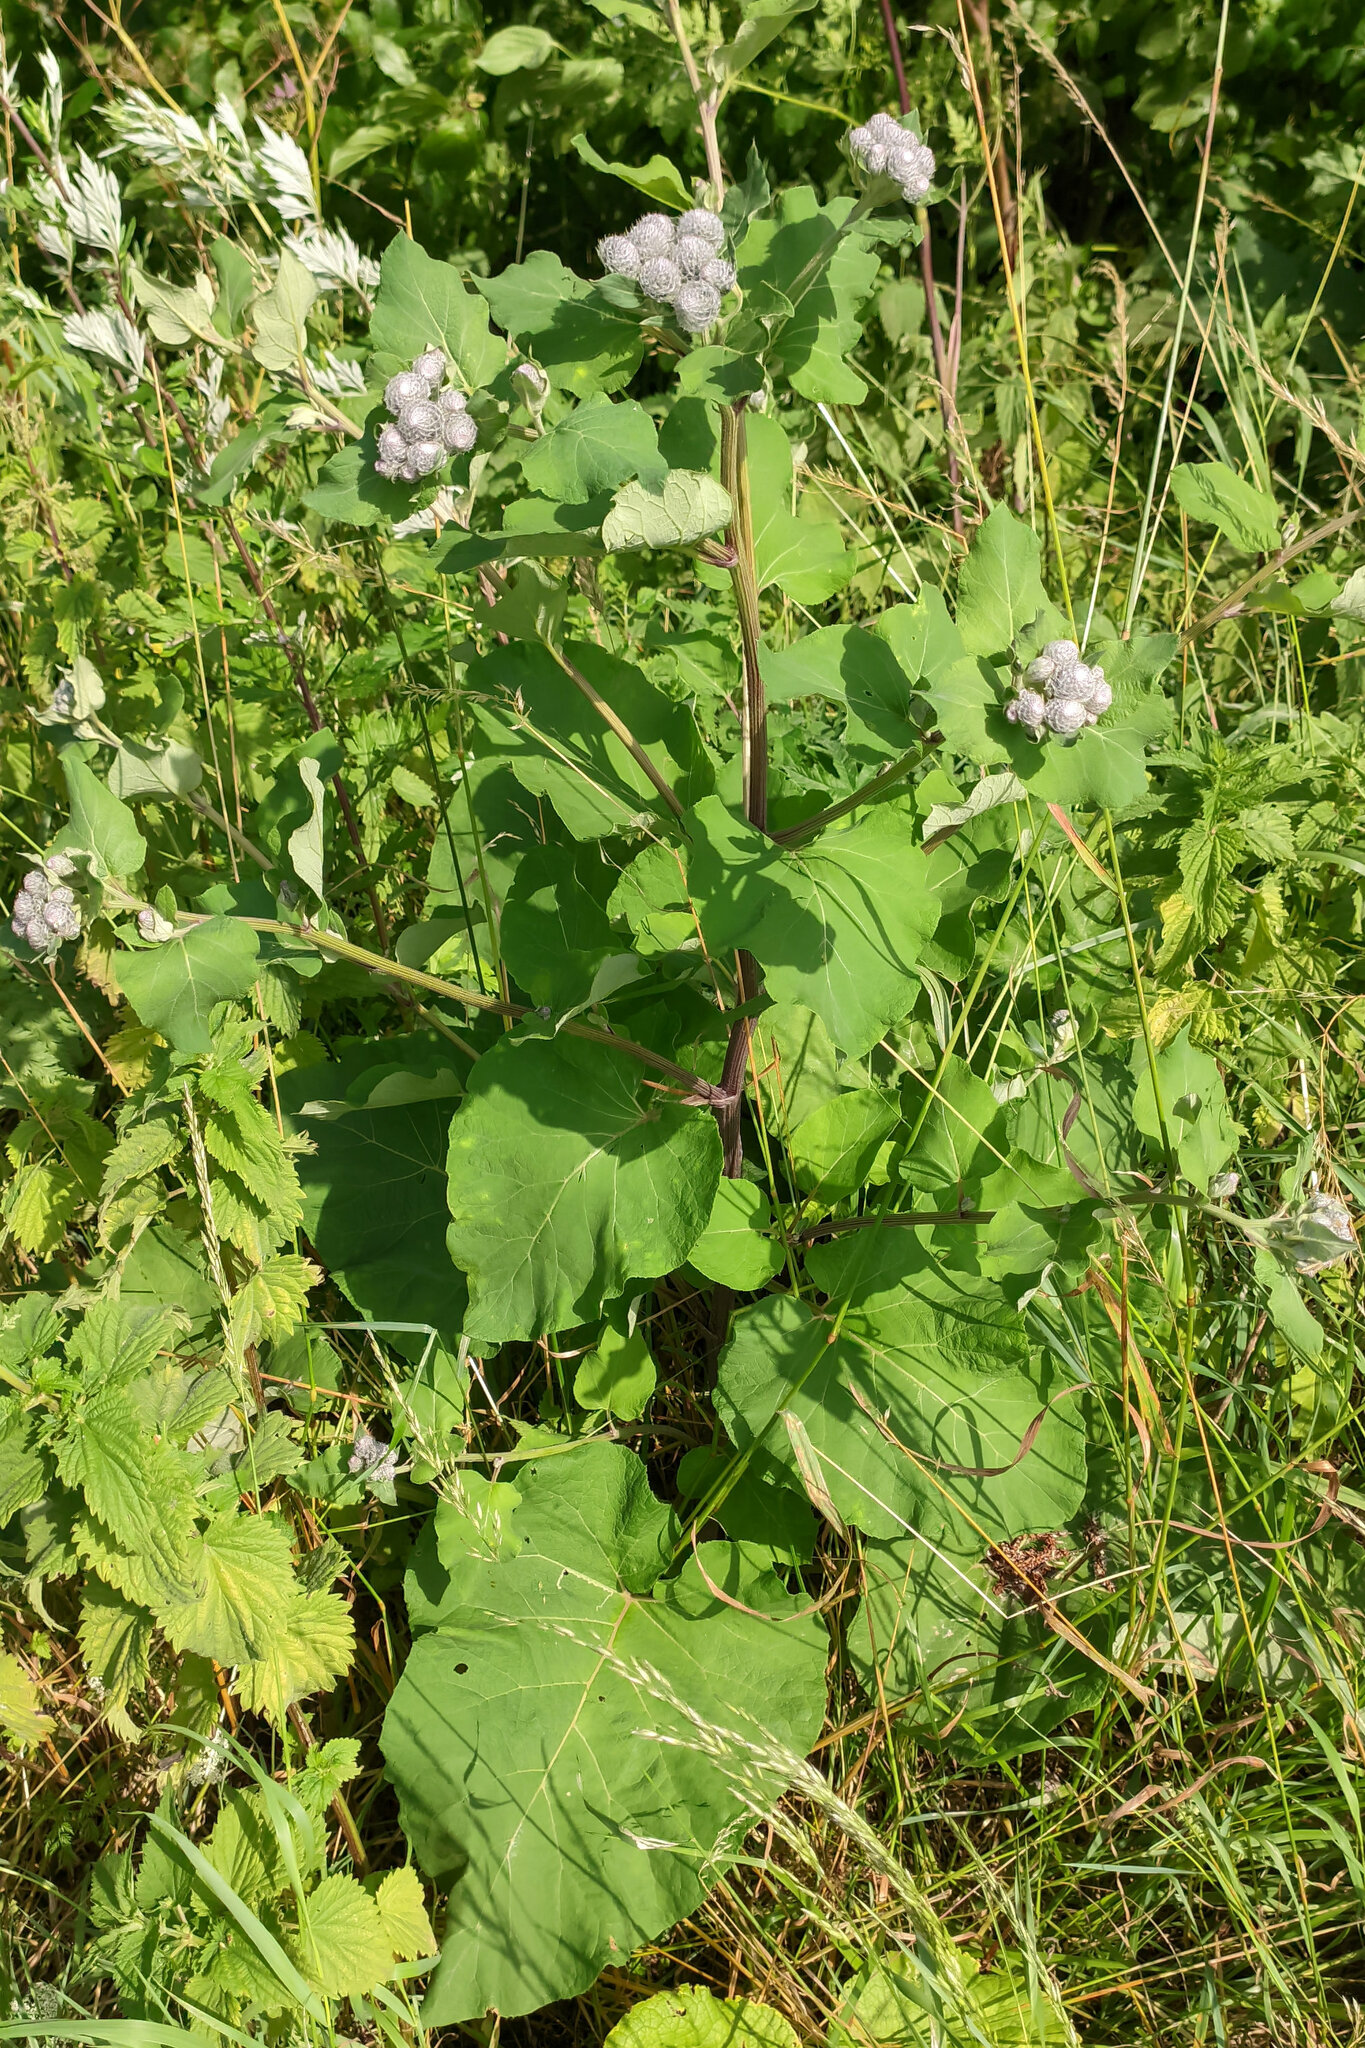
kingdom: Plantae
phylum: Tracheophyta
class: Magnoliopsida
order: Asterales
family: Asteraceae
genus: Arctium
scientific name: Arctium tomentosum
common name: Woolly burdock
